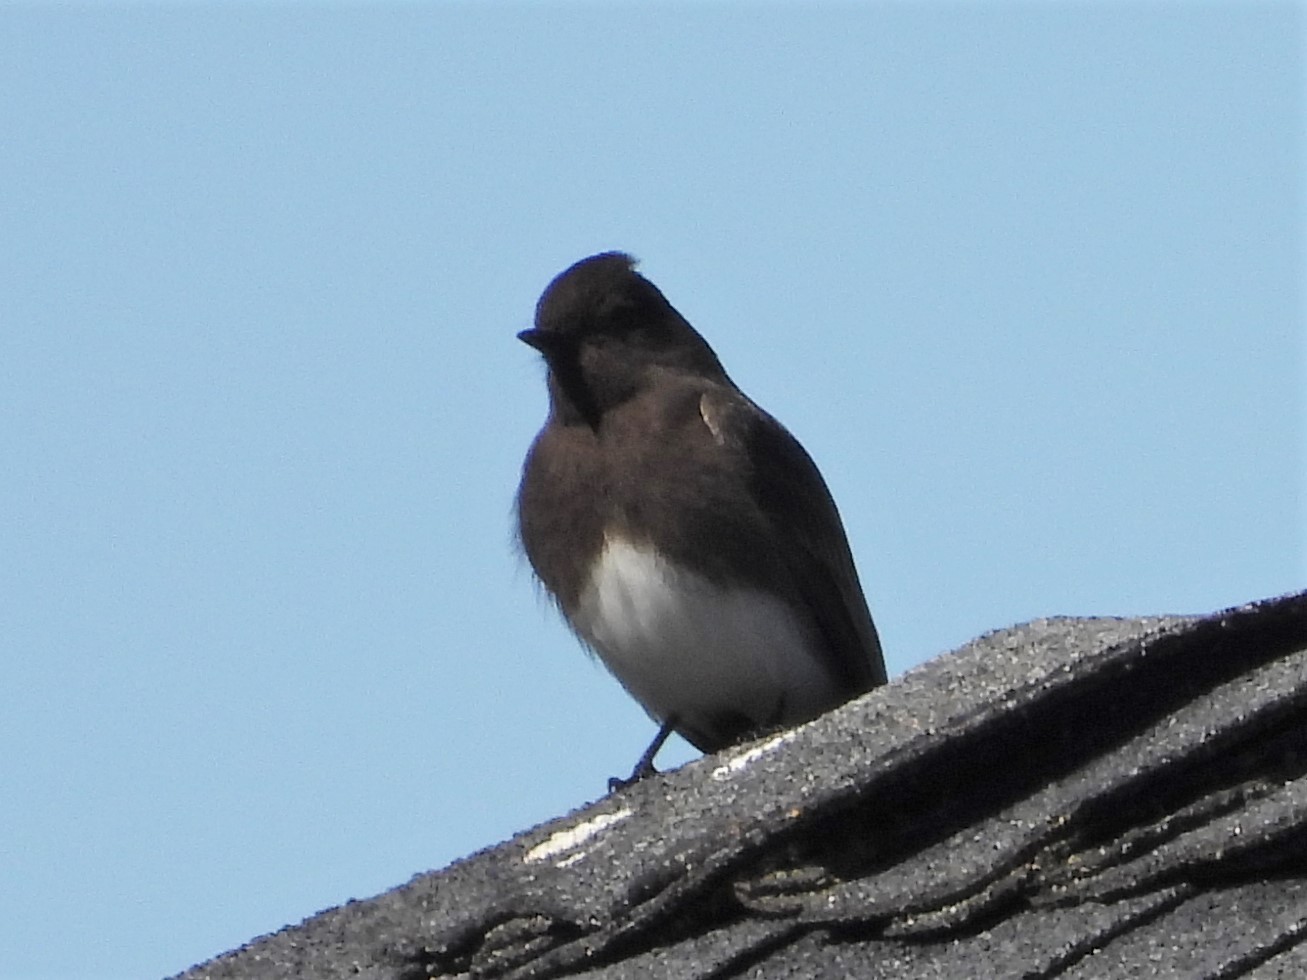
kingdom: Animalia
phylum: Chordata
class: Aves
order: Passeriformes
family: Tyrannidae
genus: Sayornis
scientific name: Sayornis nigricans
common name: Black phoebe
